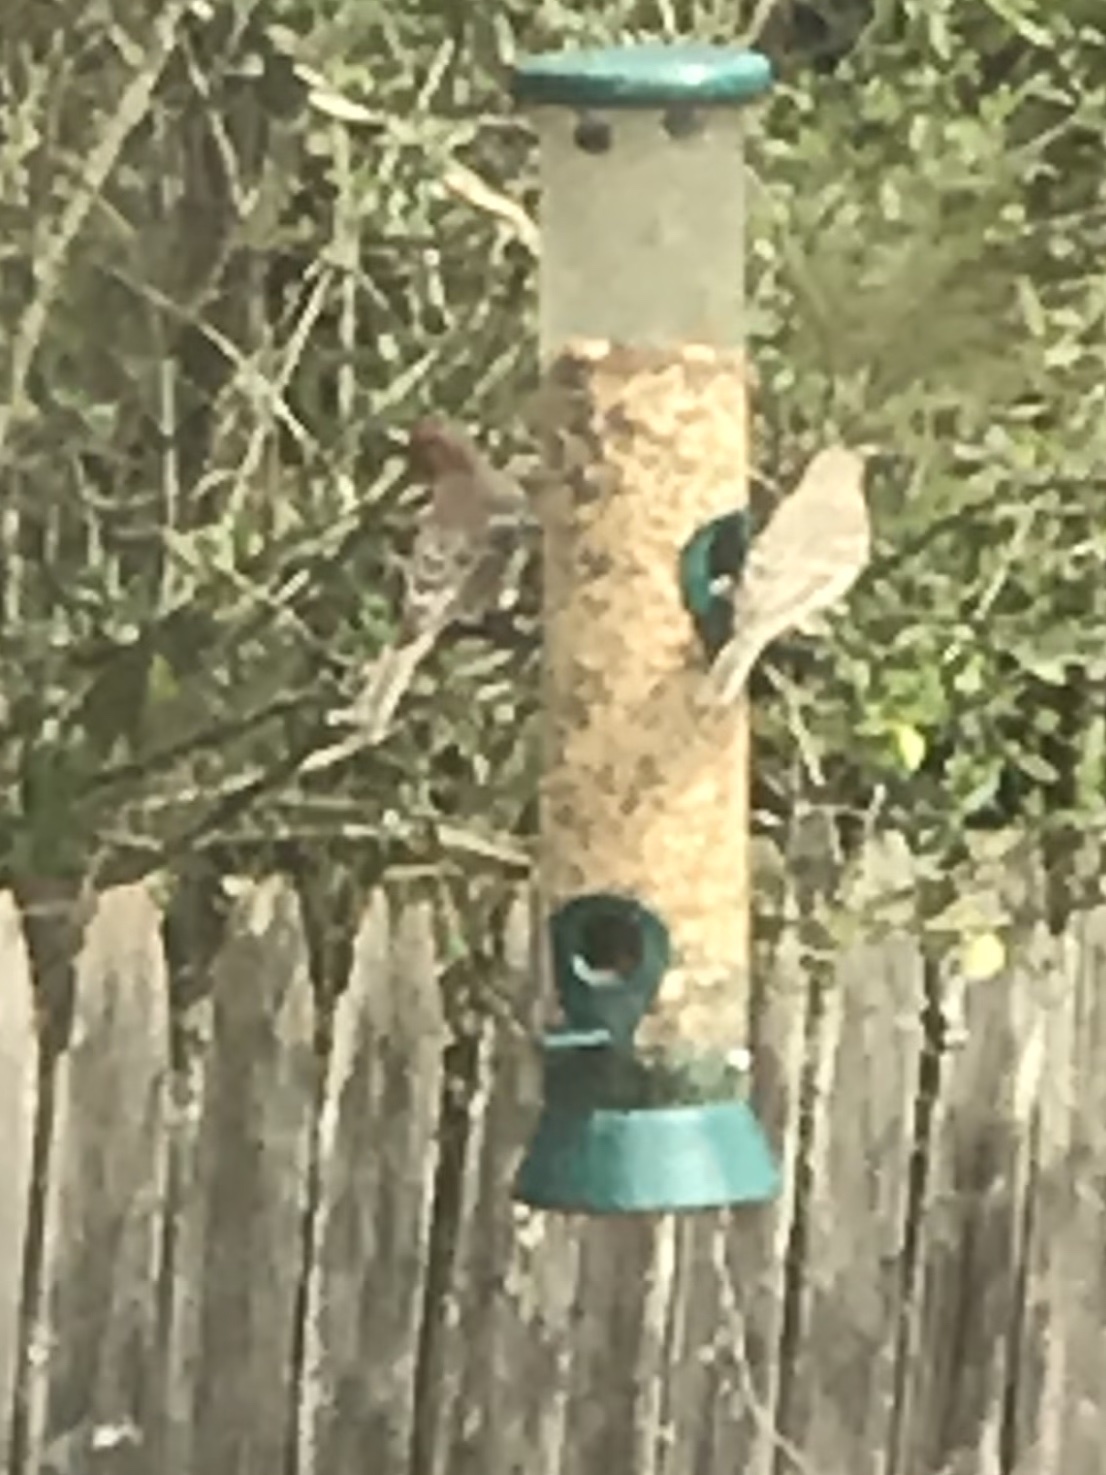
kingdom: Animalia
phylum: Chordata
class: Aves
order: Passeriformes
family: Fringillidae
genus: Haemorhous
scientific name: Haemorhous mexicanus
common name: House finch
